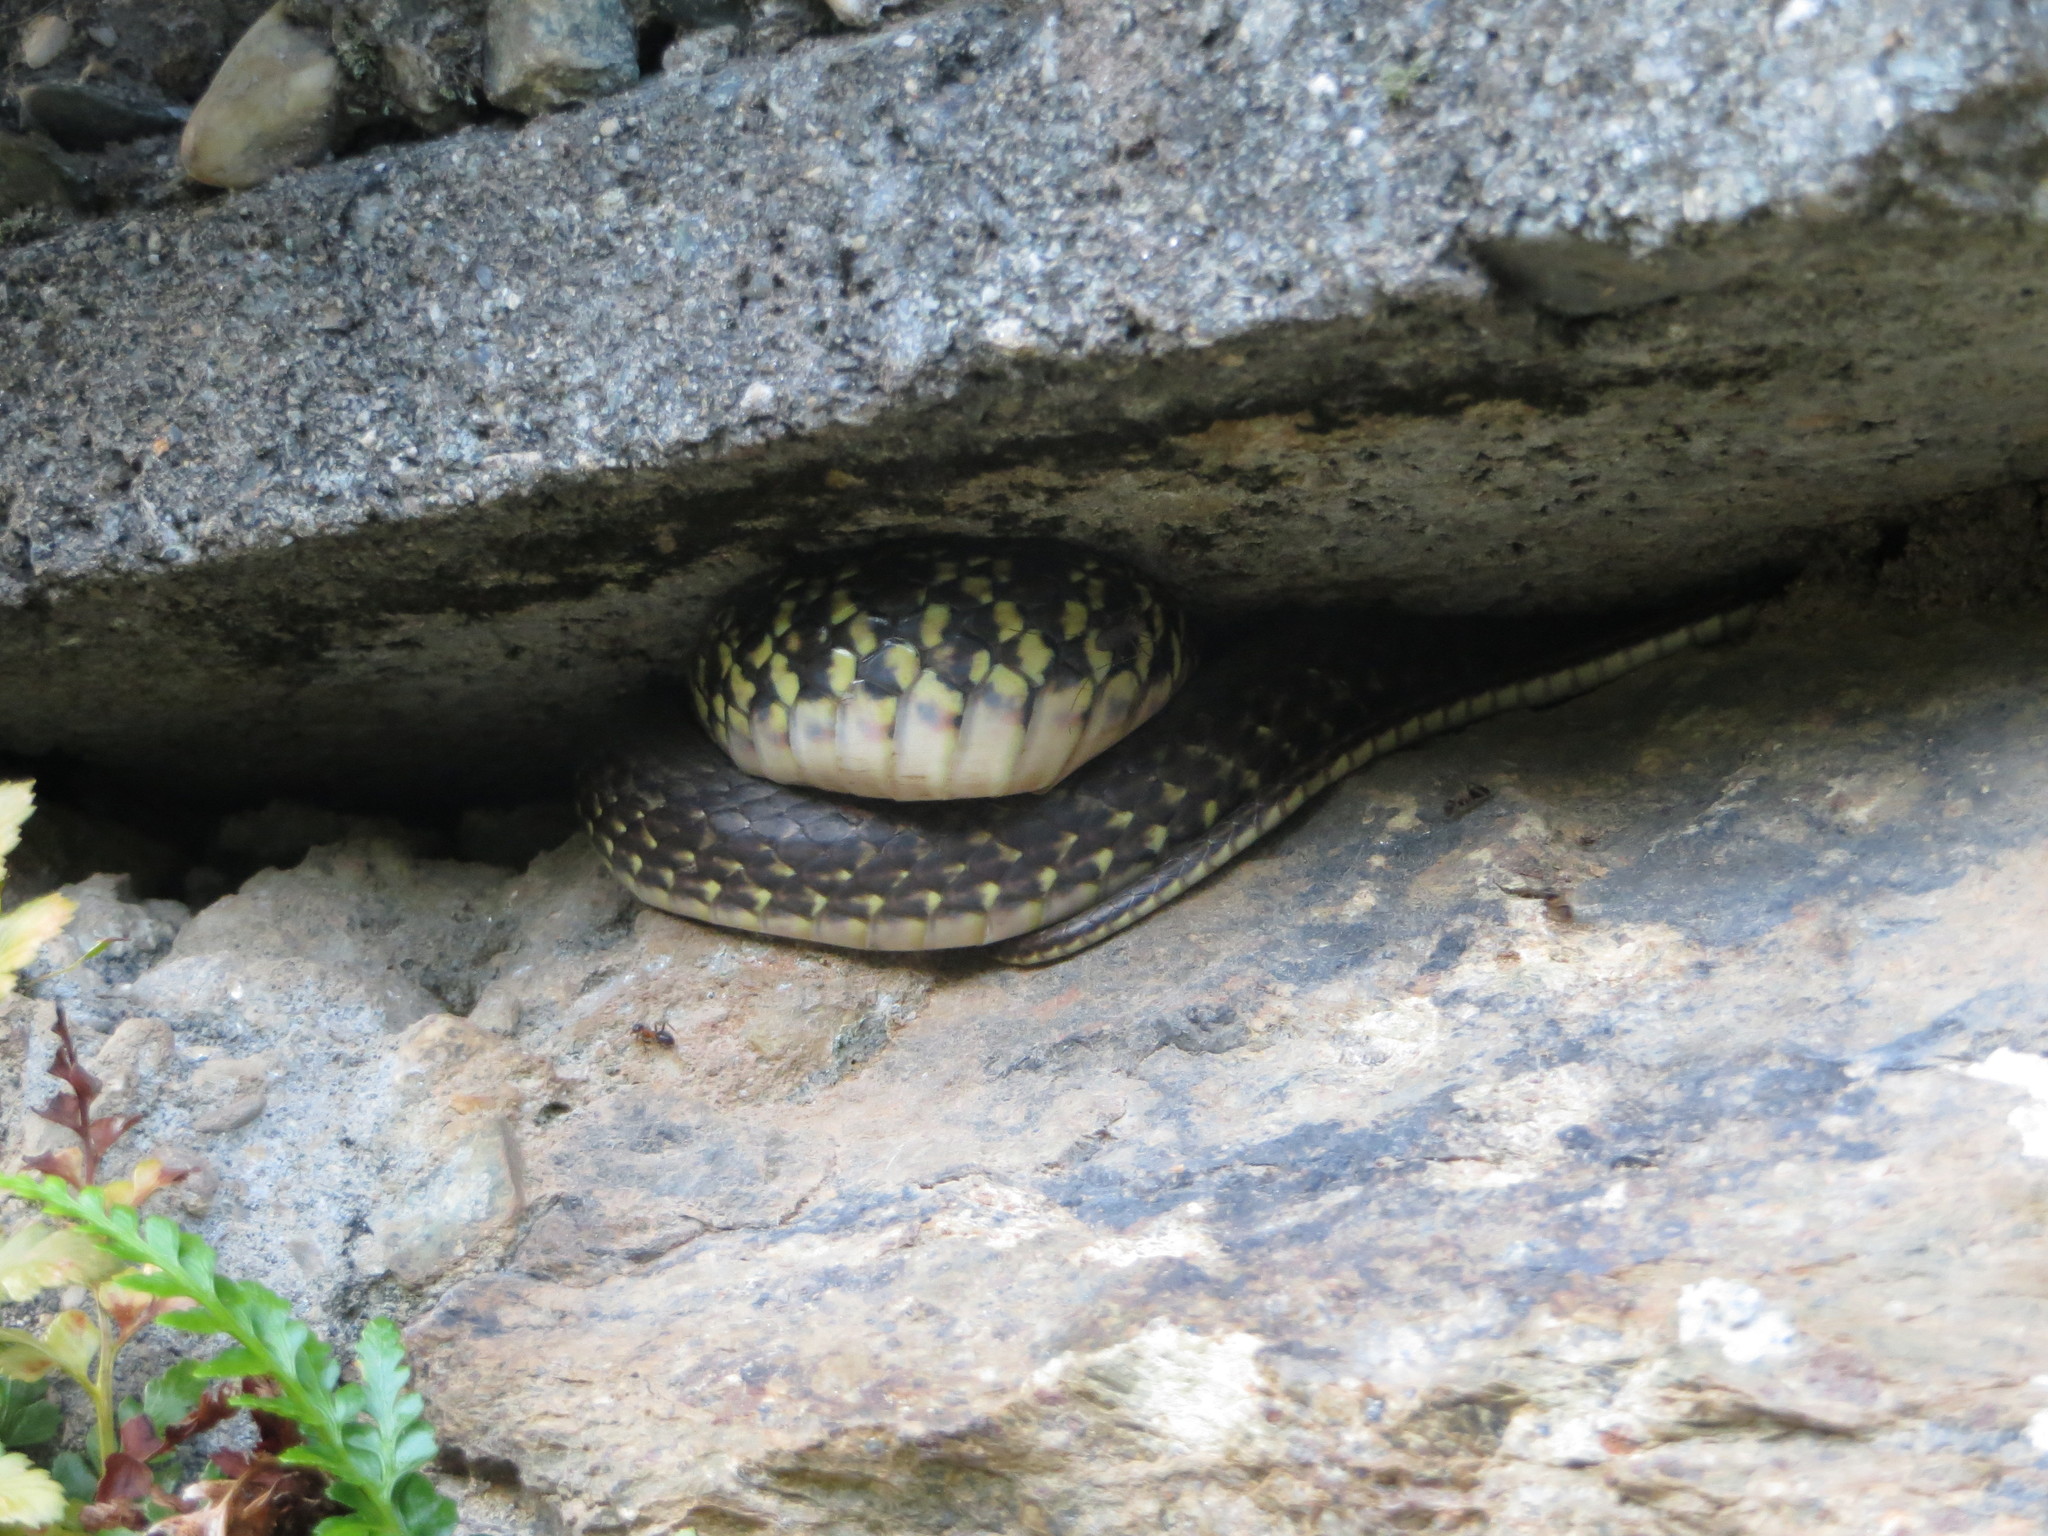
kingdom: Animalia
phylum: Chordata
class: Squamata
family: Colubridae
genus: Hierophis
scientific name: Hierophis viridiflavus
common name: Green whip snake
